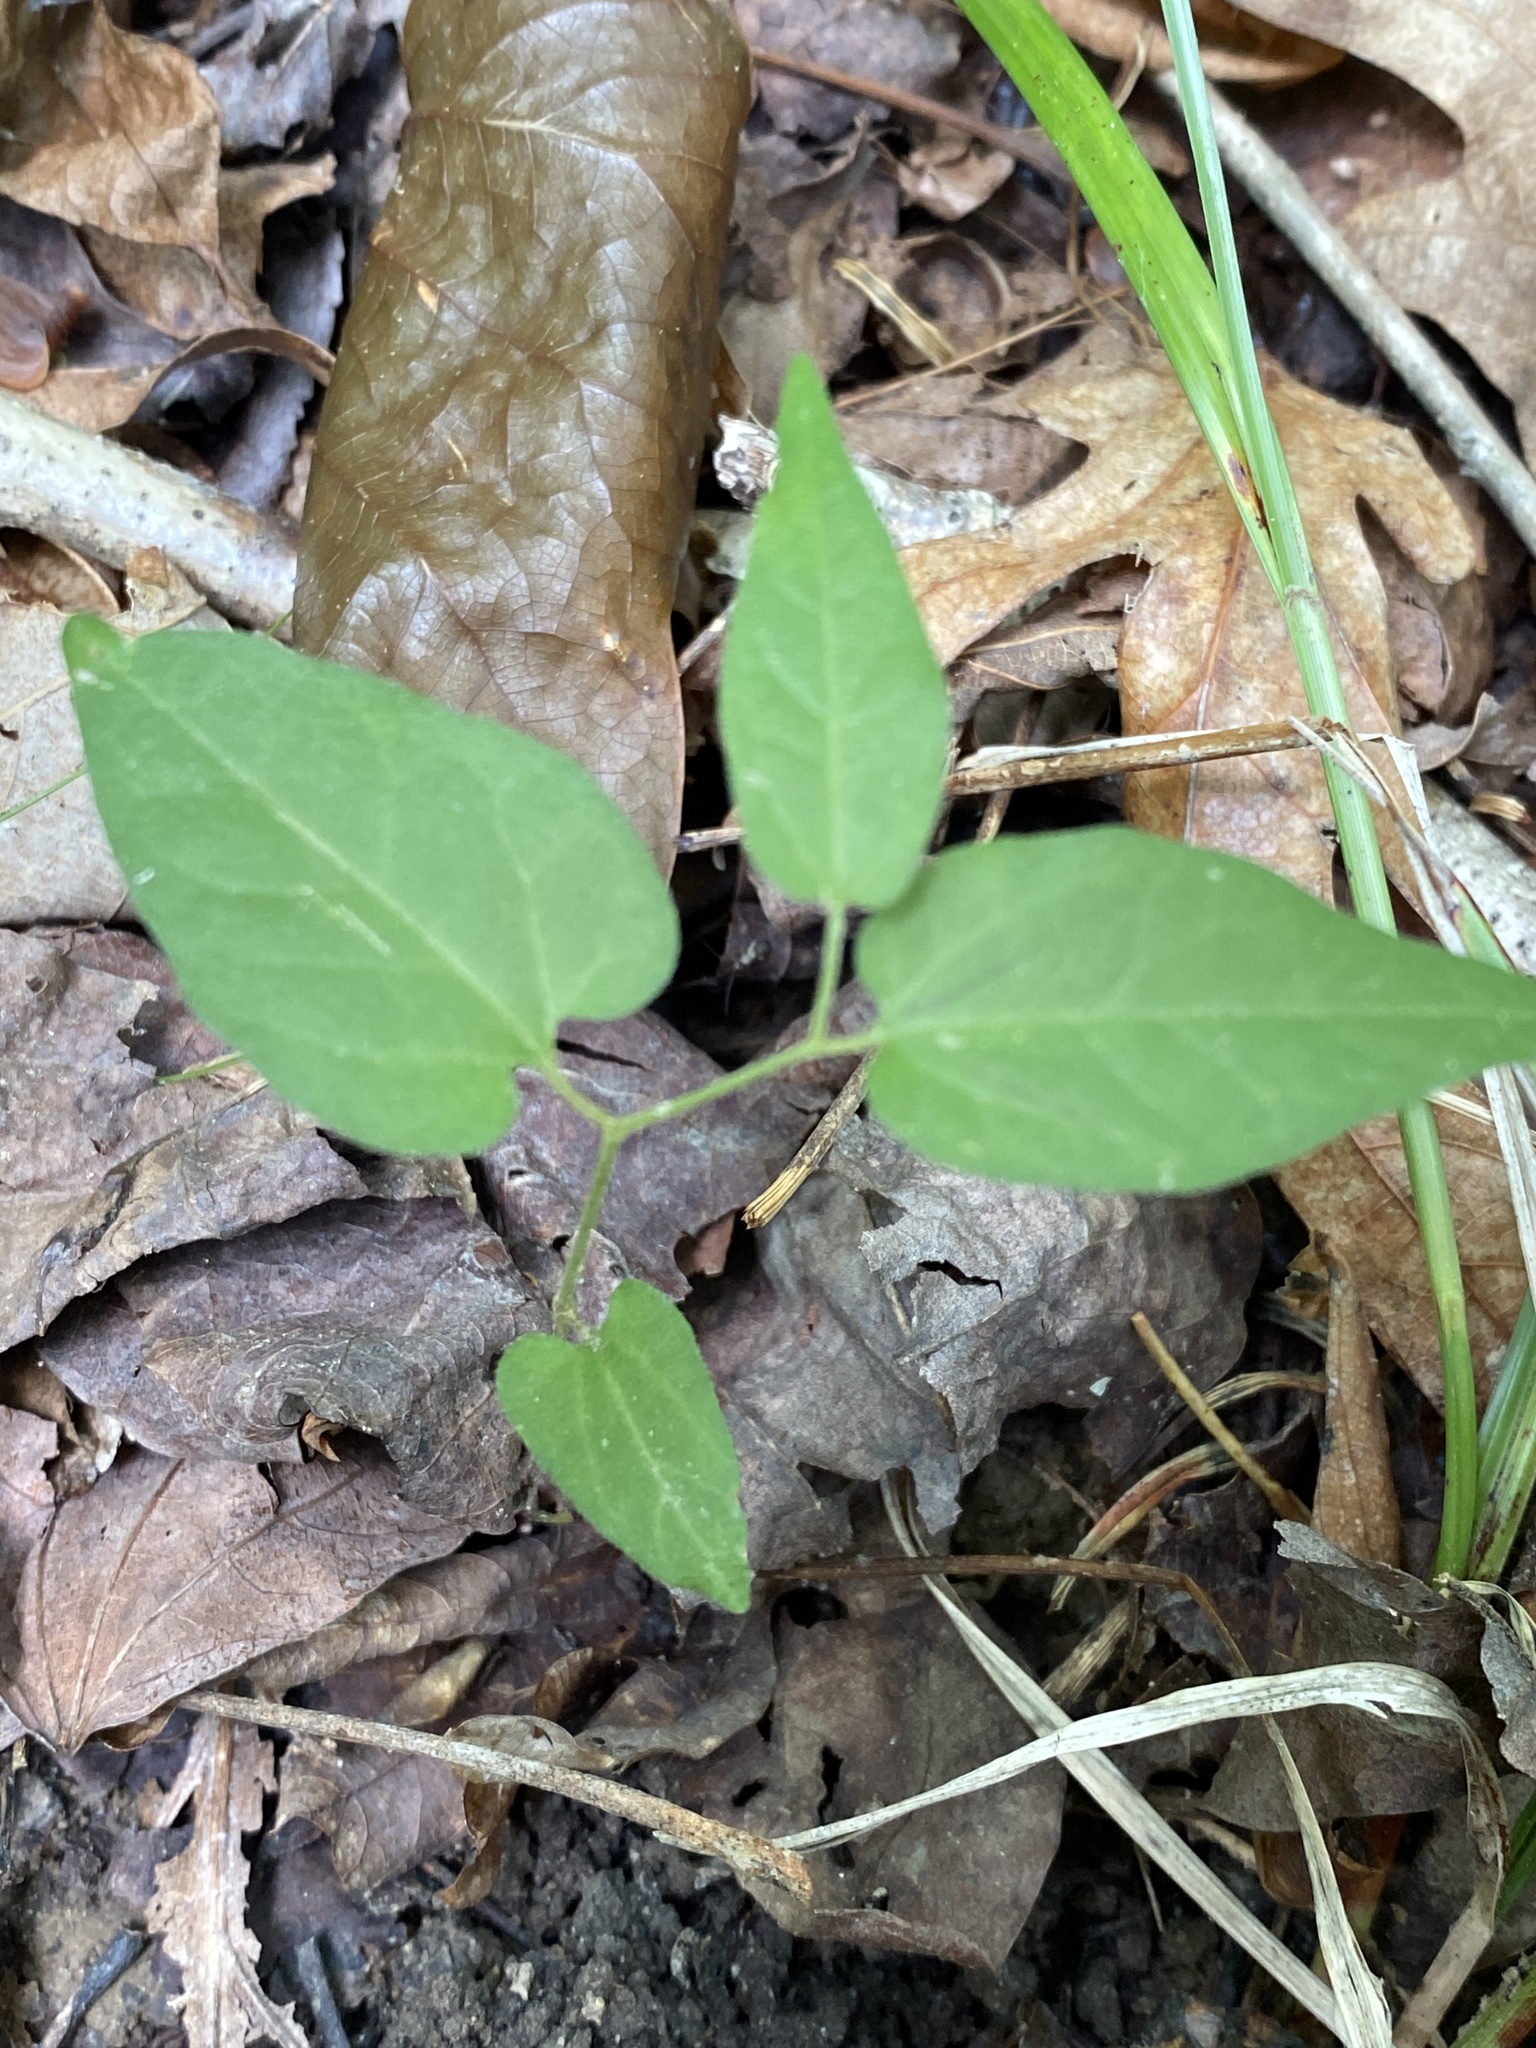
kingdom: Plantae
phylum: Tracheophyta
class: Magnoliopsida
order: Piperales
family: Aristolochiaceae
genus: Endodeca
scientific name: Endodeca serpentaria
